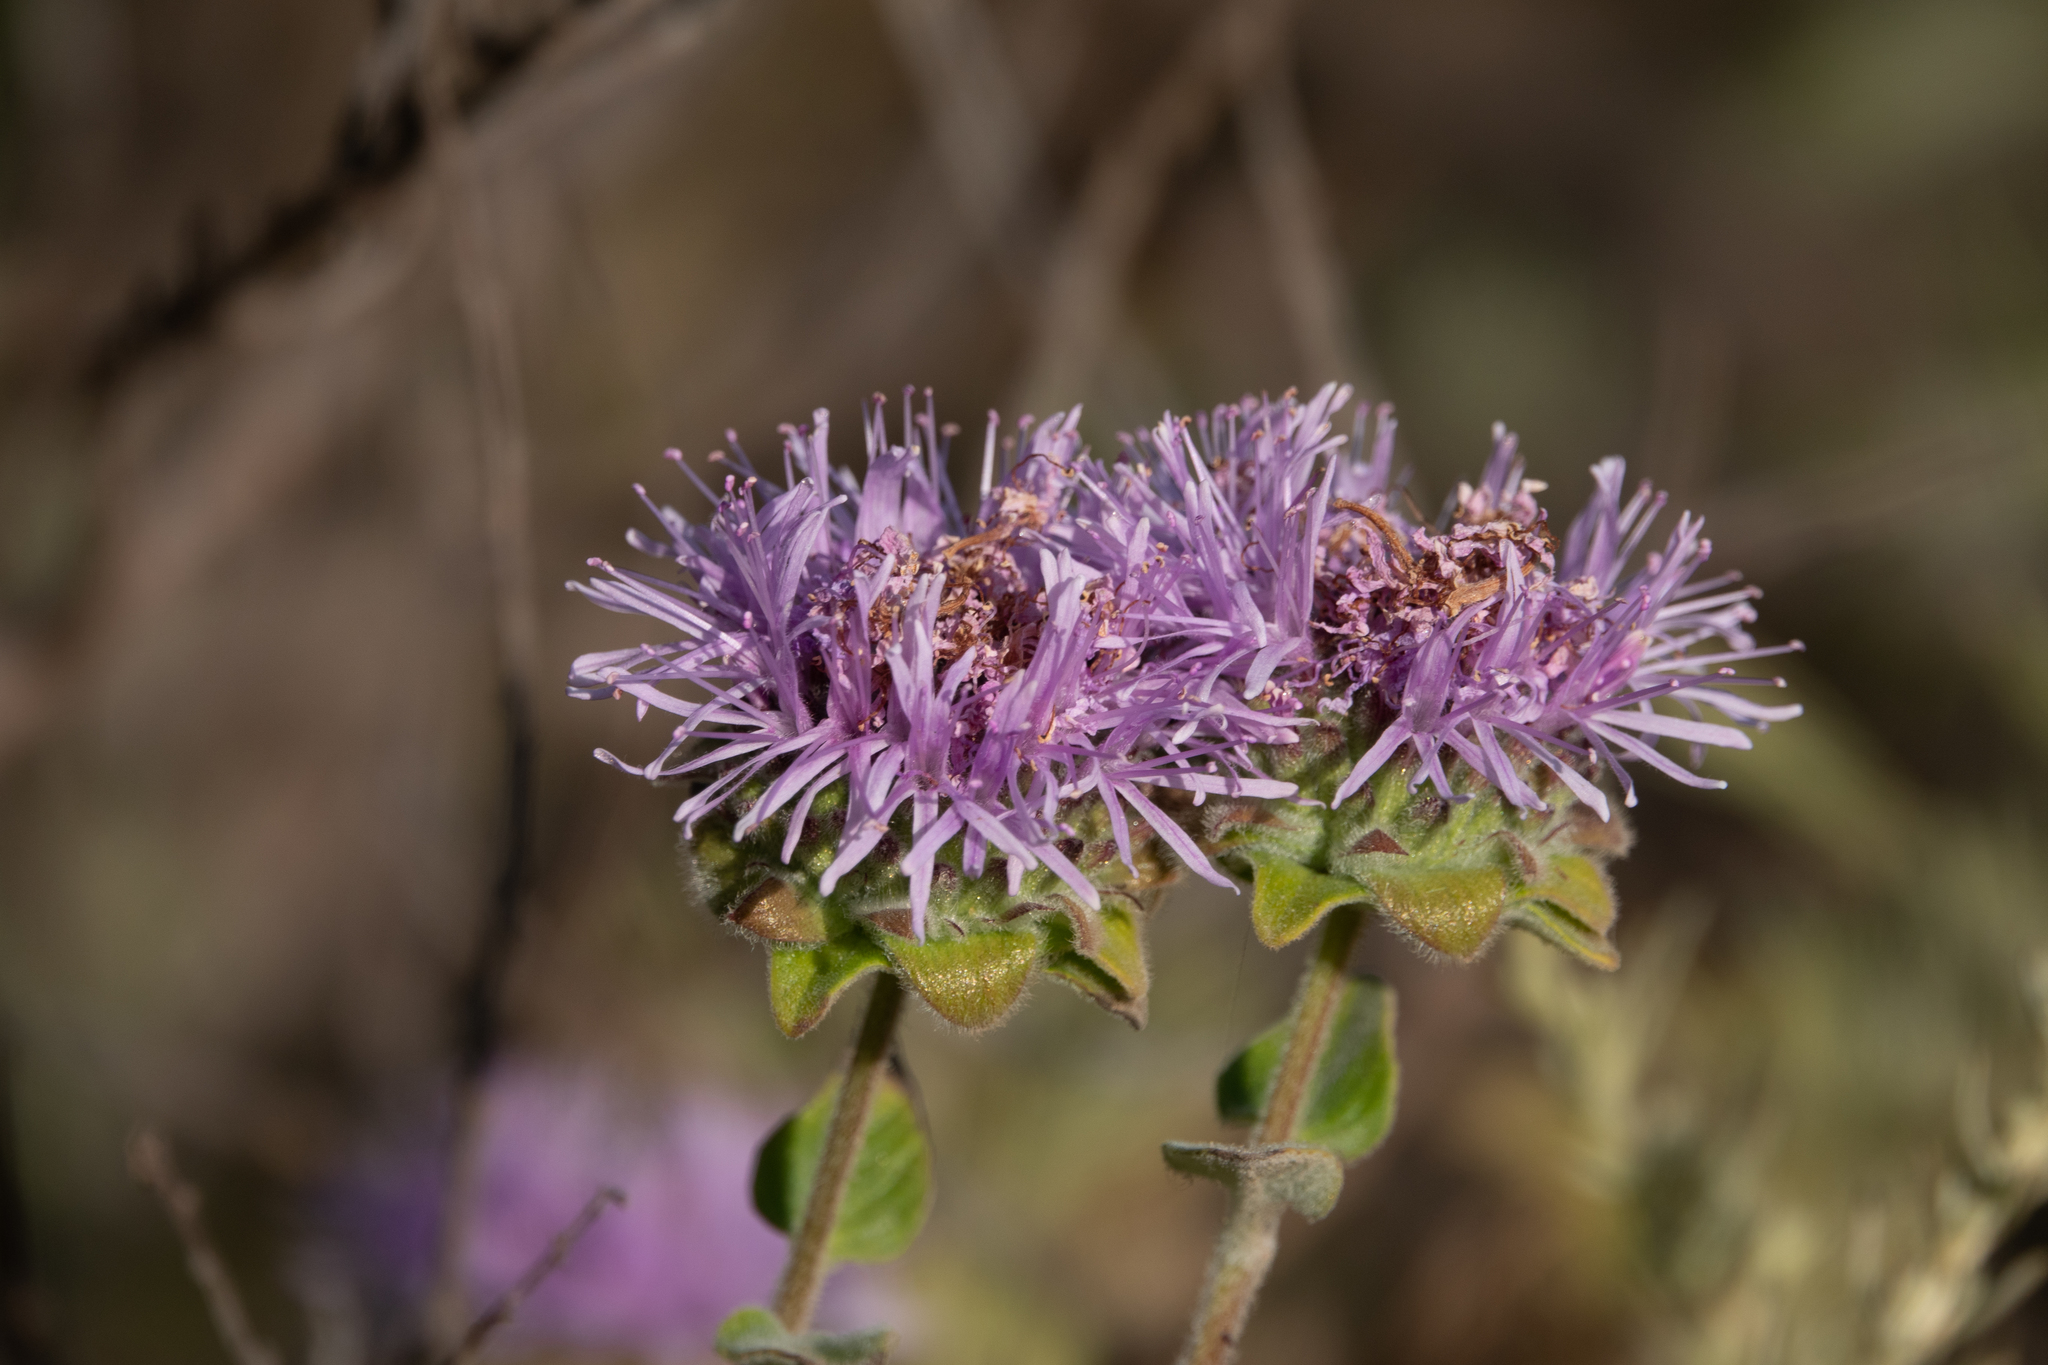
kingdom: Plantae
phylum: Tracheophyta
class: Magnoliopsida
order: Lamiales
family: Lamiaceae
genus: Monardella
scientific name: Monardella odoratissima
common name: Pacific monardella
